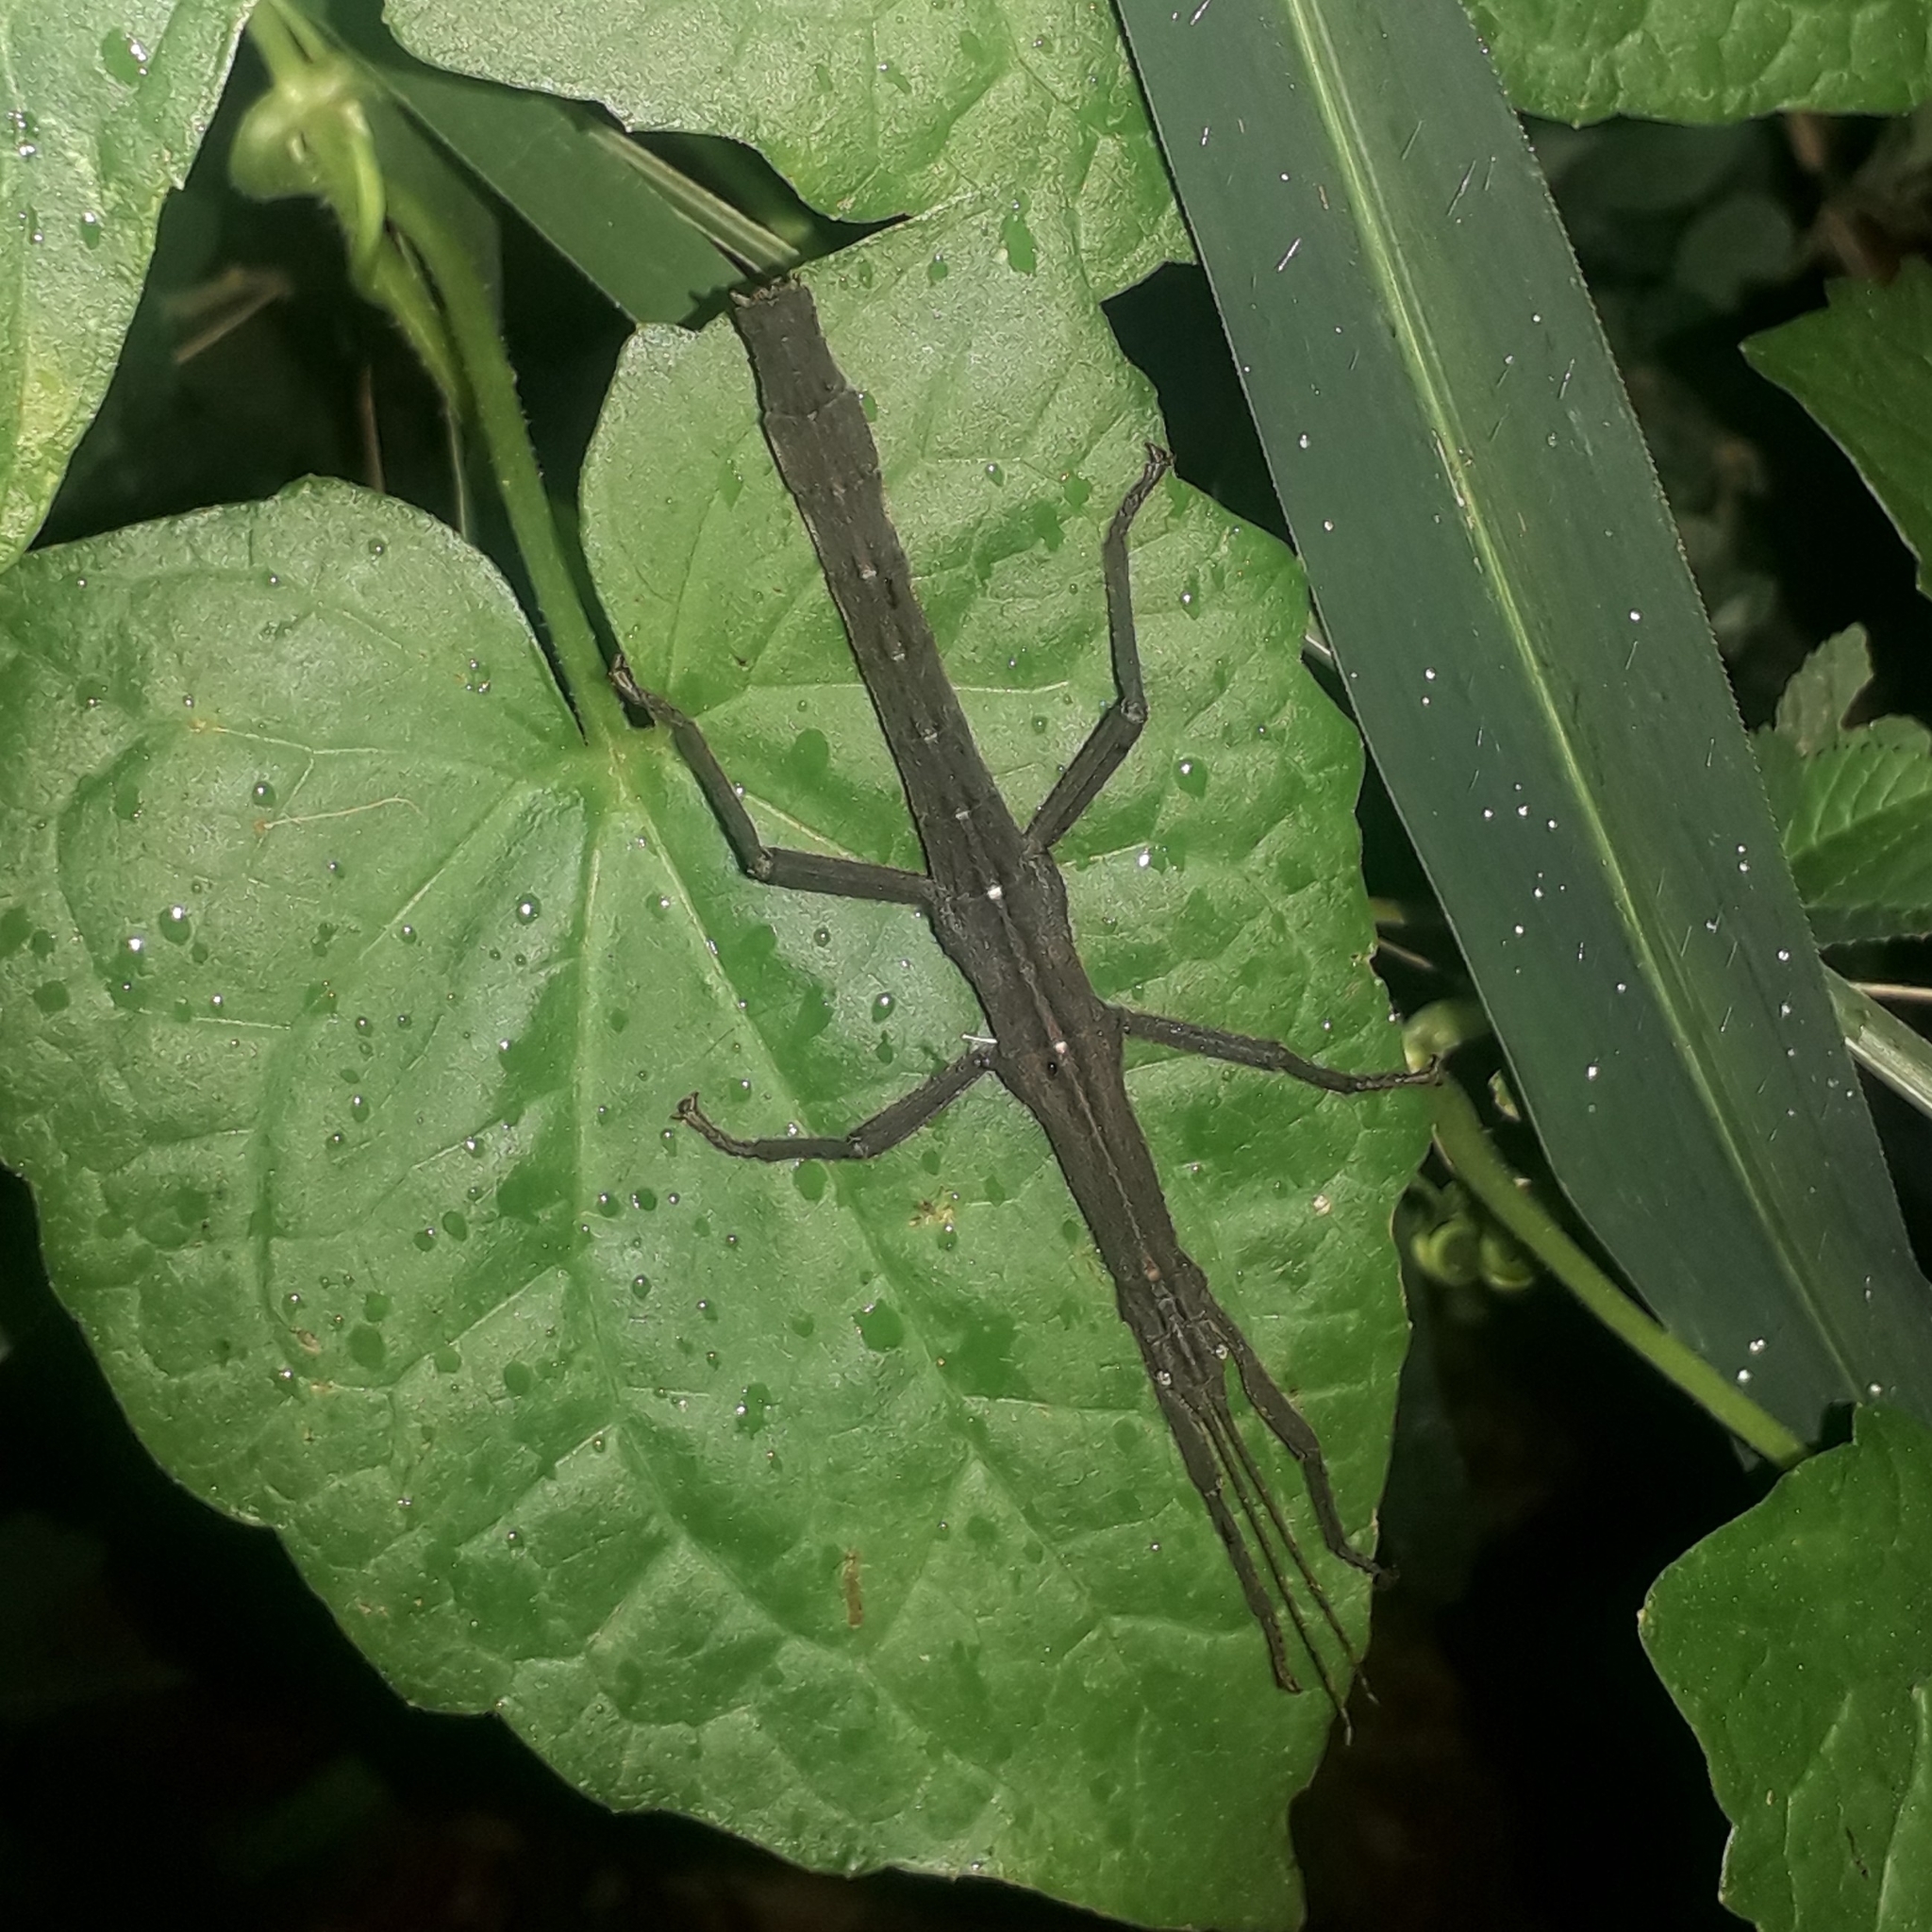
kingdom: Animalia
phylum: Arthropoda
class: Insecta
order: Phasmida
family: Phasmatidae
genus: Lamponius
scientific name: Lamponius guerini
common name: Guadeloupe stick insect
